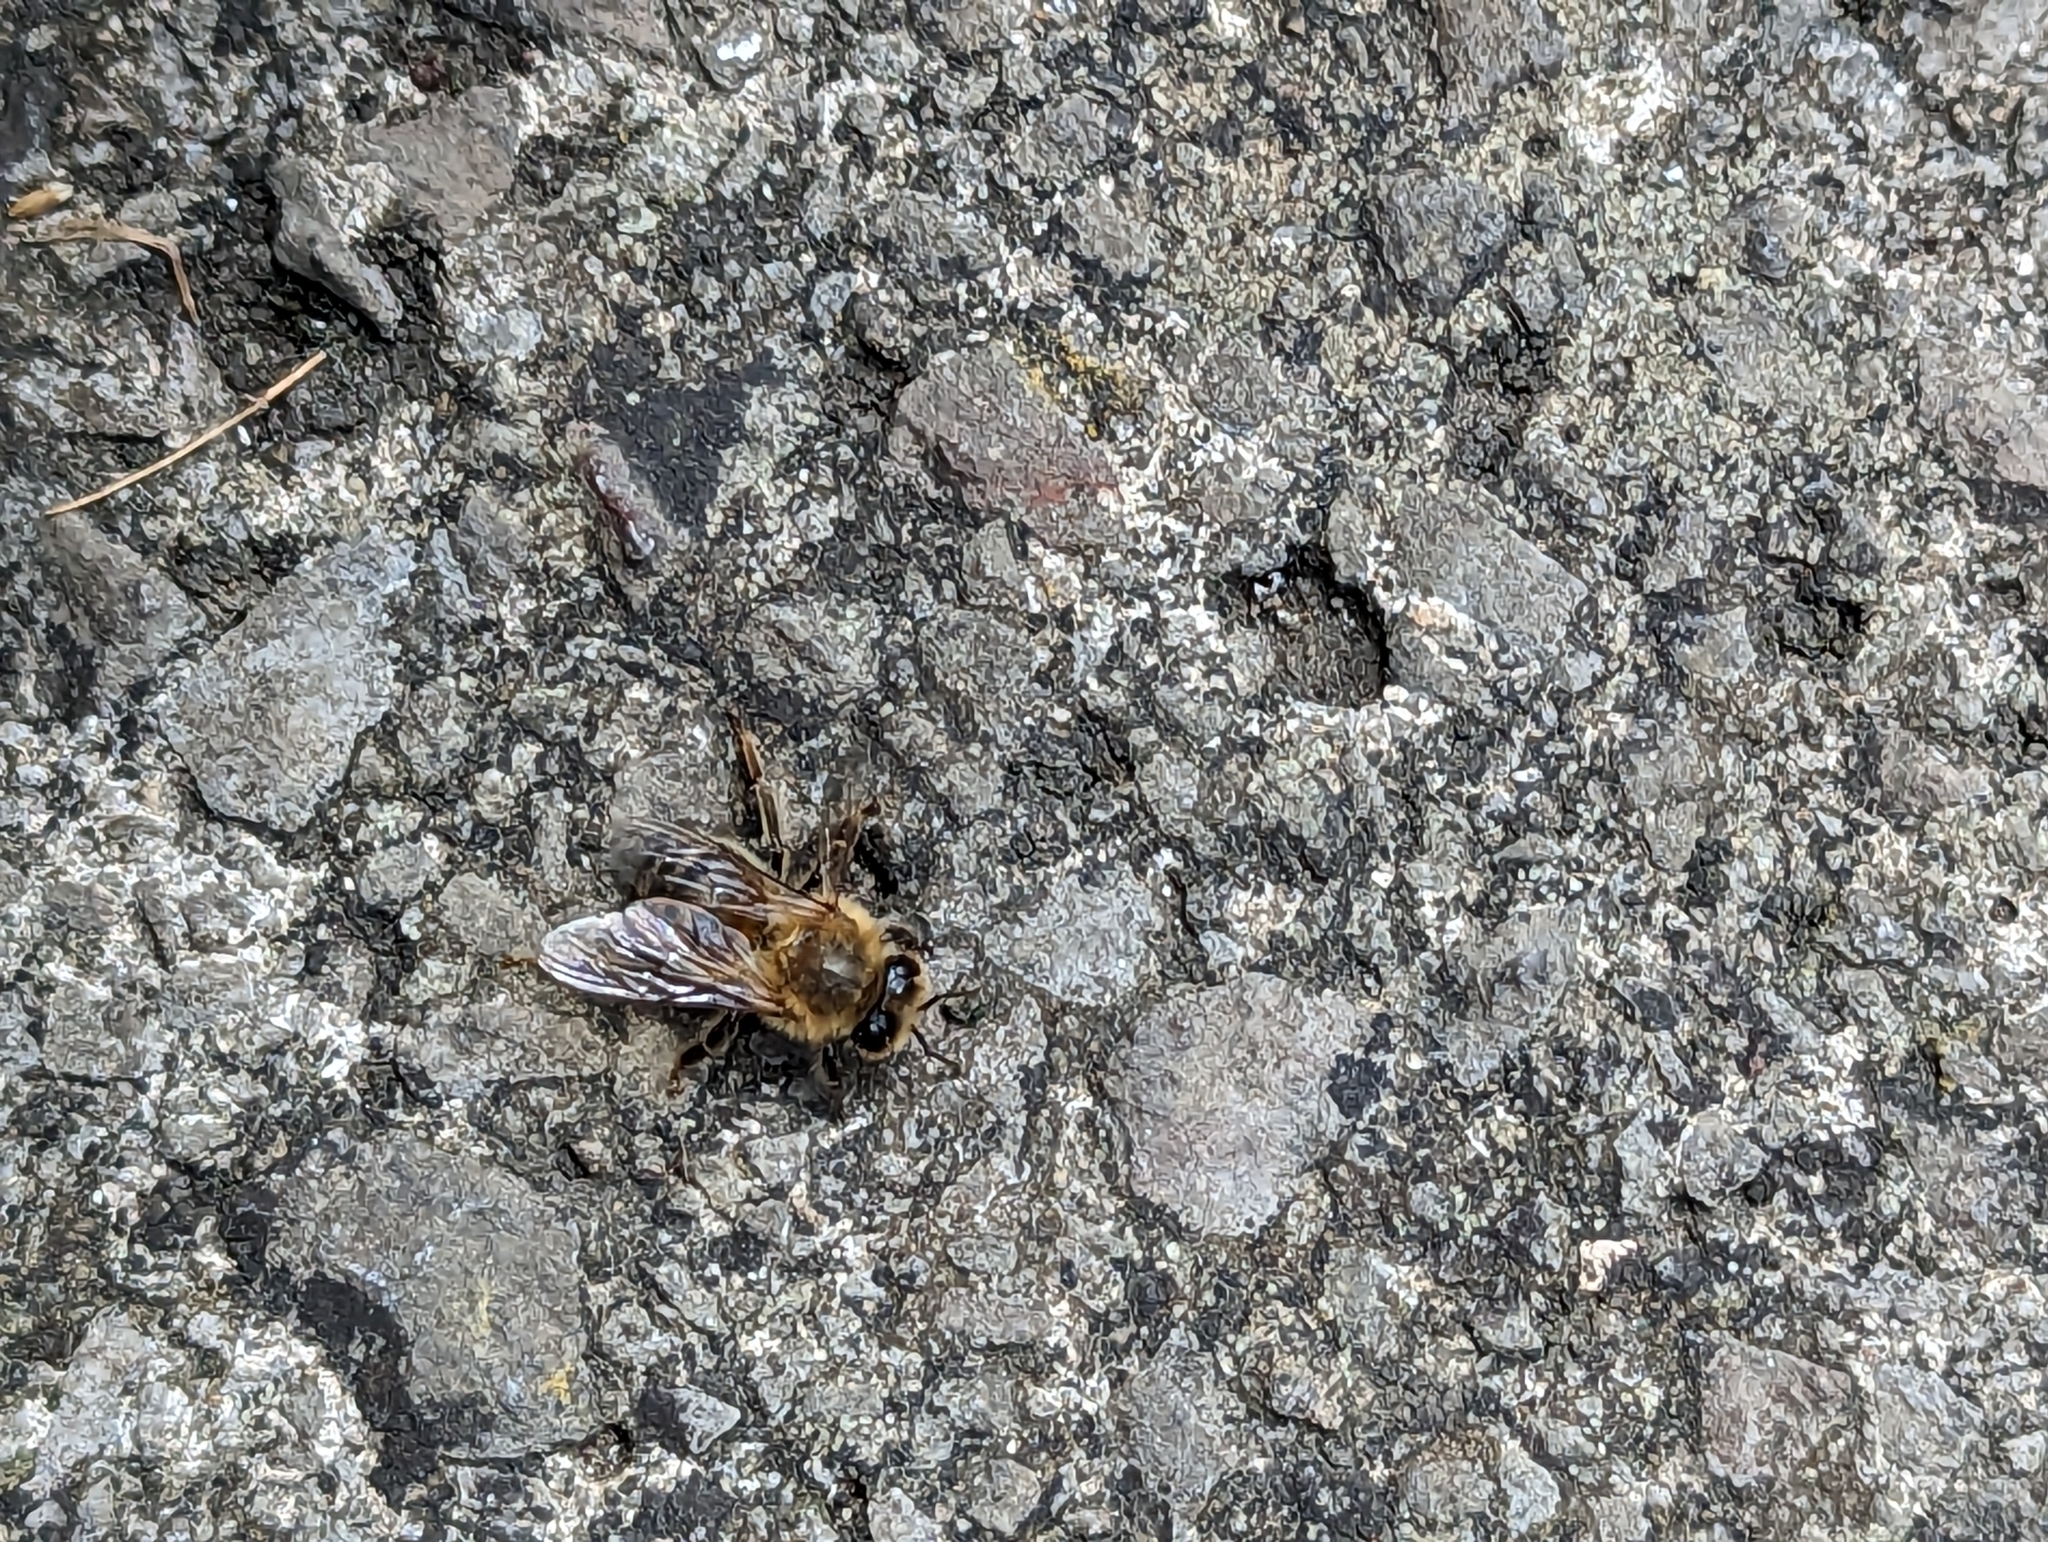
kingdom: Animalia
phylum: Arthropoda
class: Insecta
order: Hymenoptera
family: Apidae
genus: Apis
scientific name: Apis mellifera
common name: Honey bee
